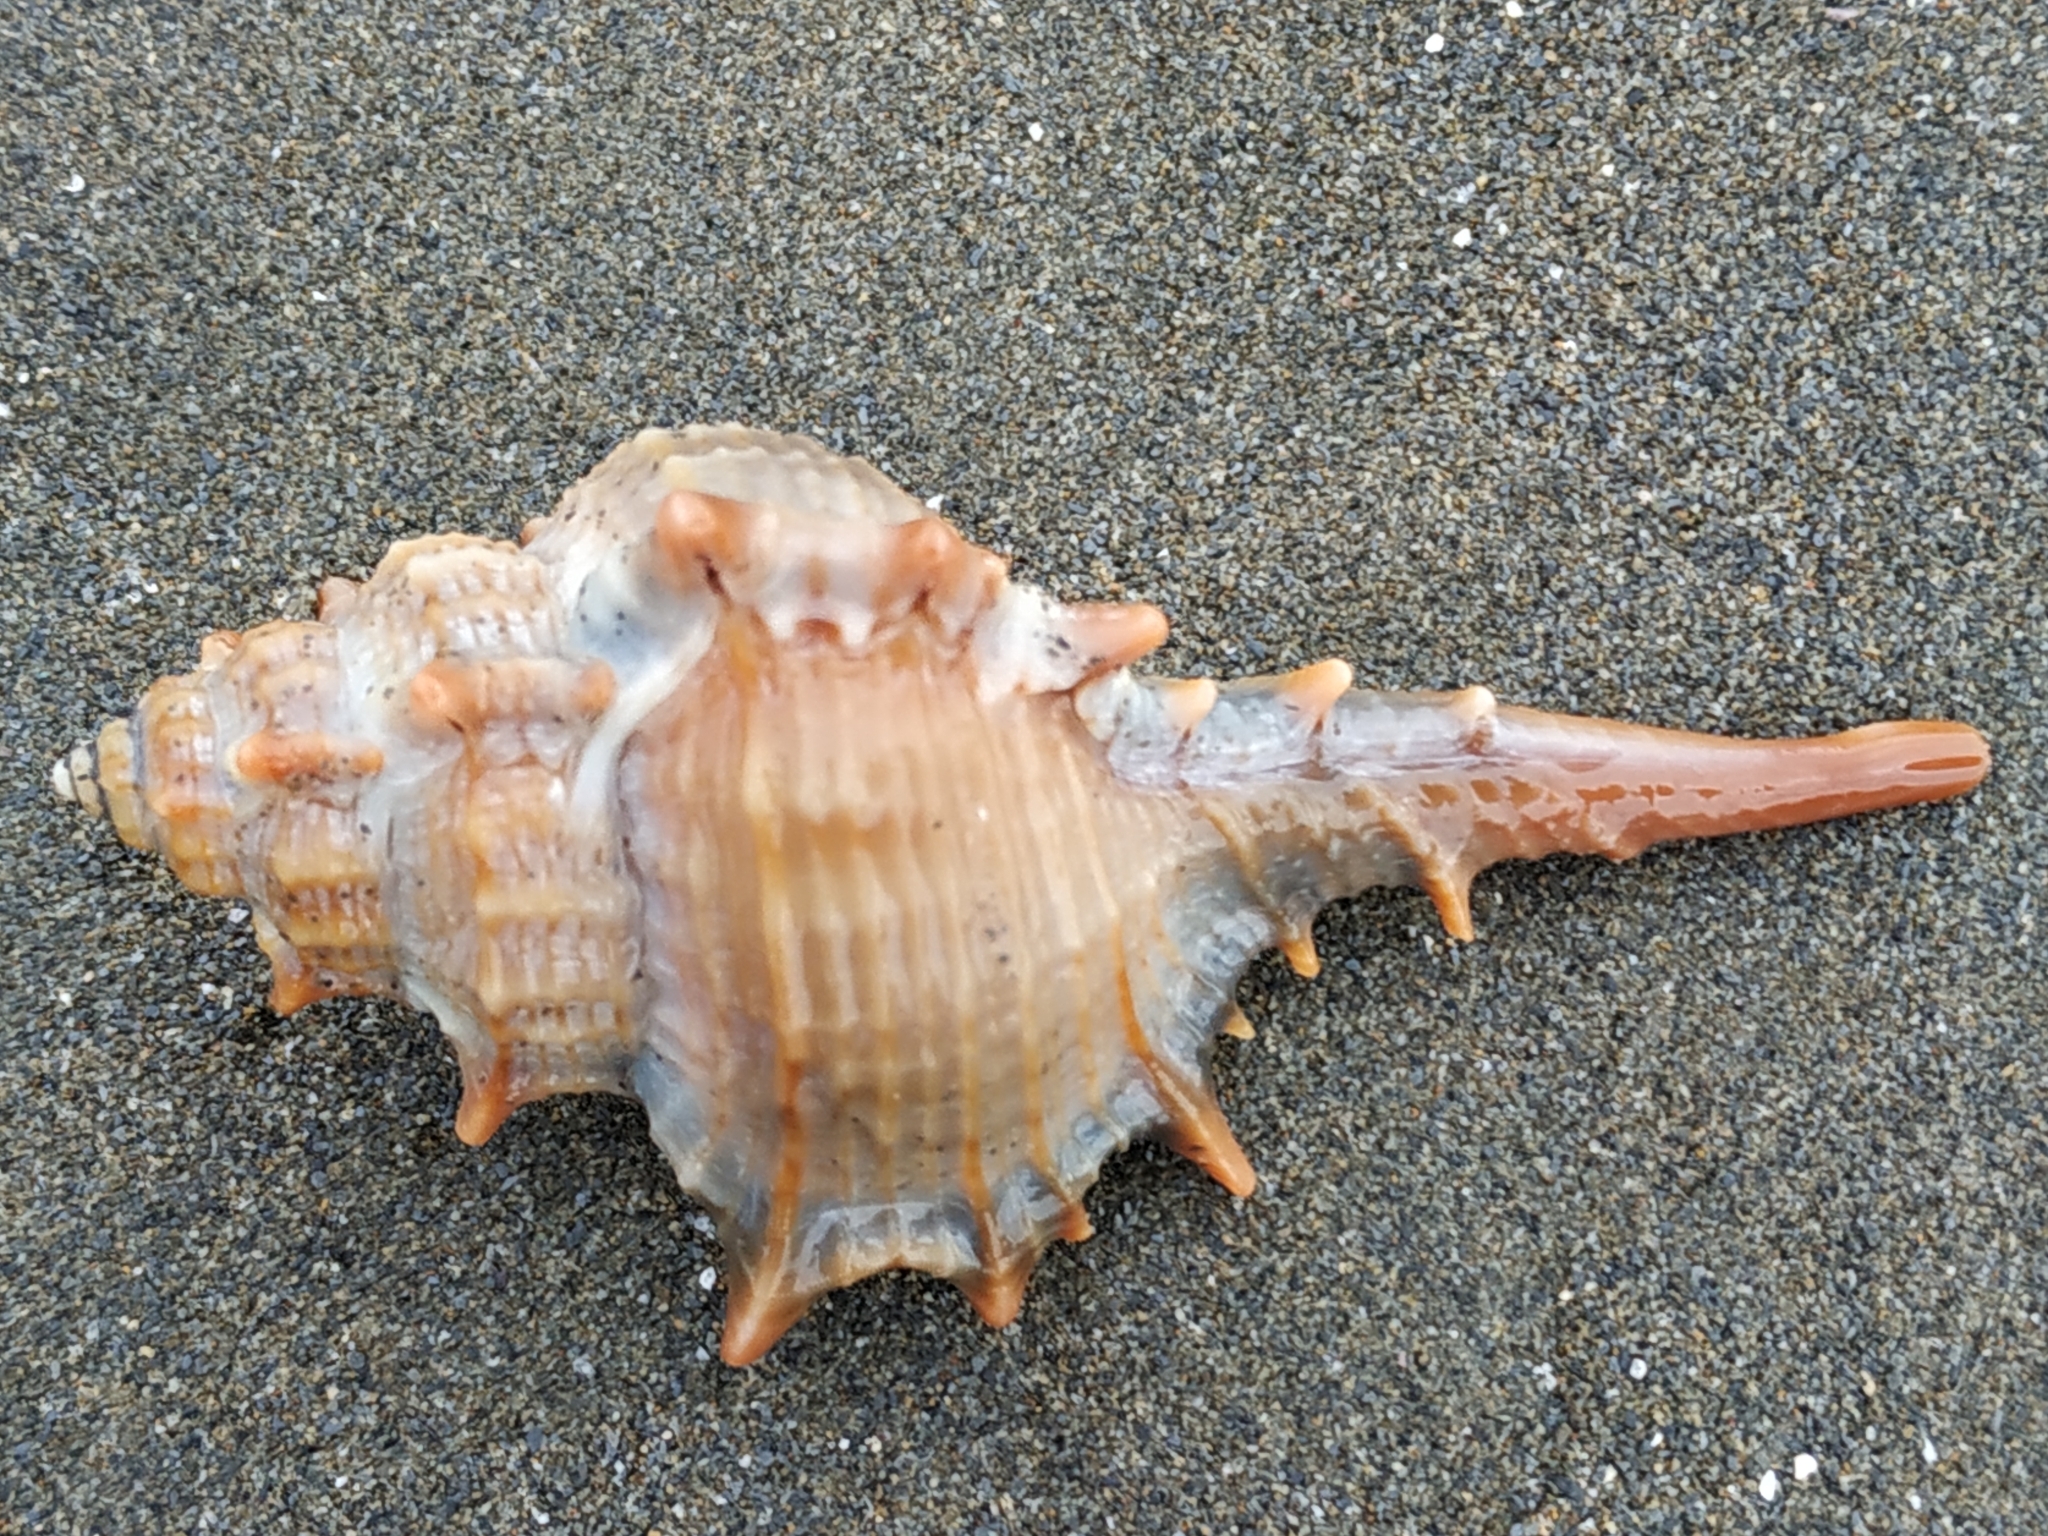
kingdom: Animalia
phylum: Mollusca
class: Gastropoda
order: Neogastropoda
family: Muricidae
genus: Murex
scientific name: Murex trapa
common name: Rare spined murex
